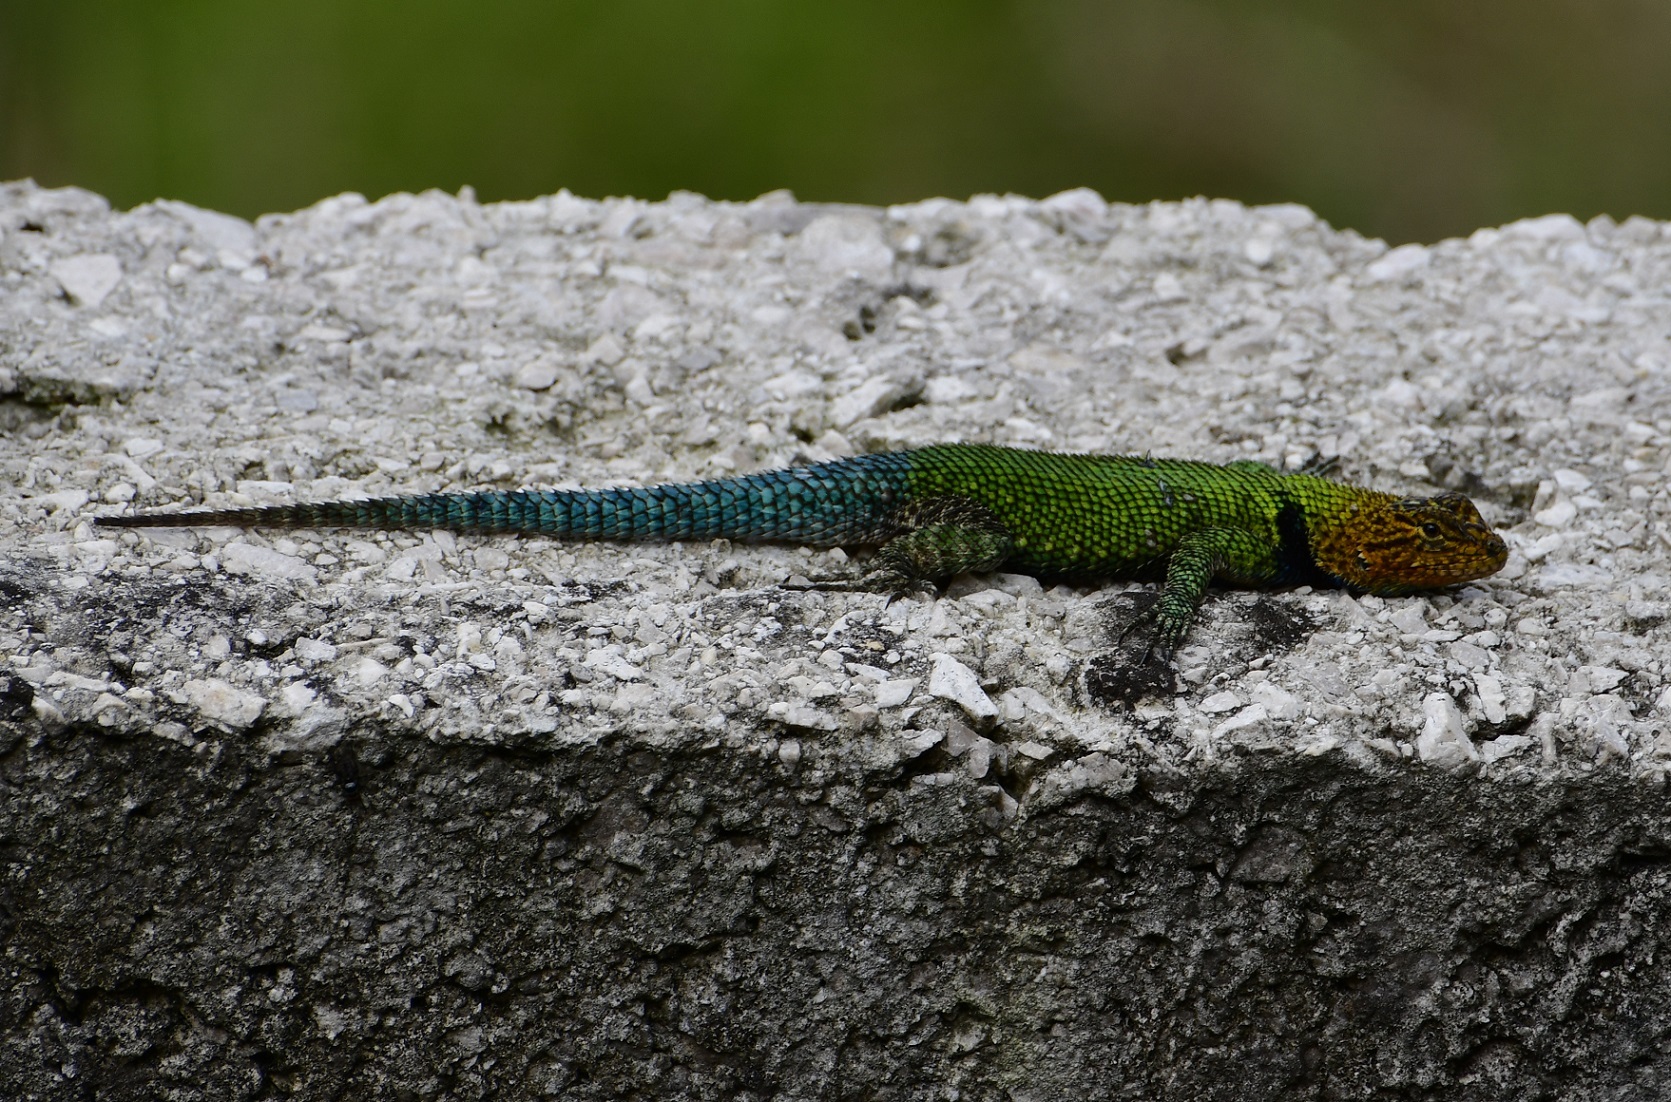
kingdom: Animalia
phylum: Chordata
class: Squamata
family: Phrynosomatidae
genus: Sceloporus
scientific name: Sceloporus taeniocnemis
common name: Guatemalan emerald spiny lizard
